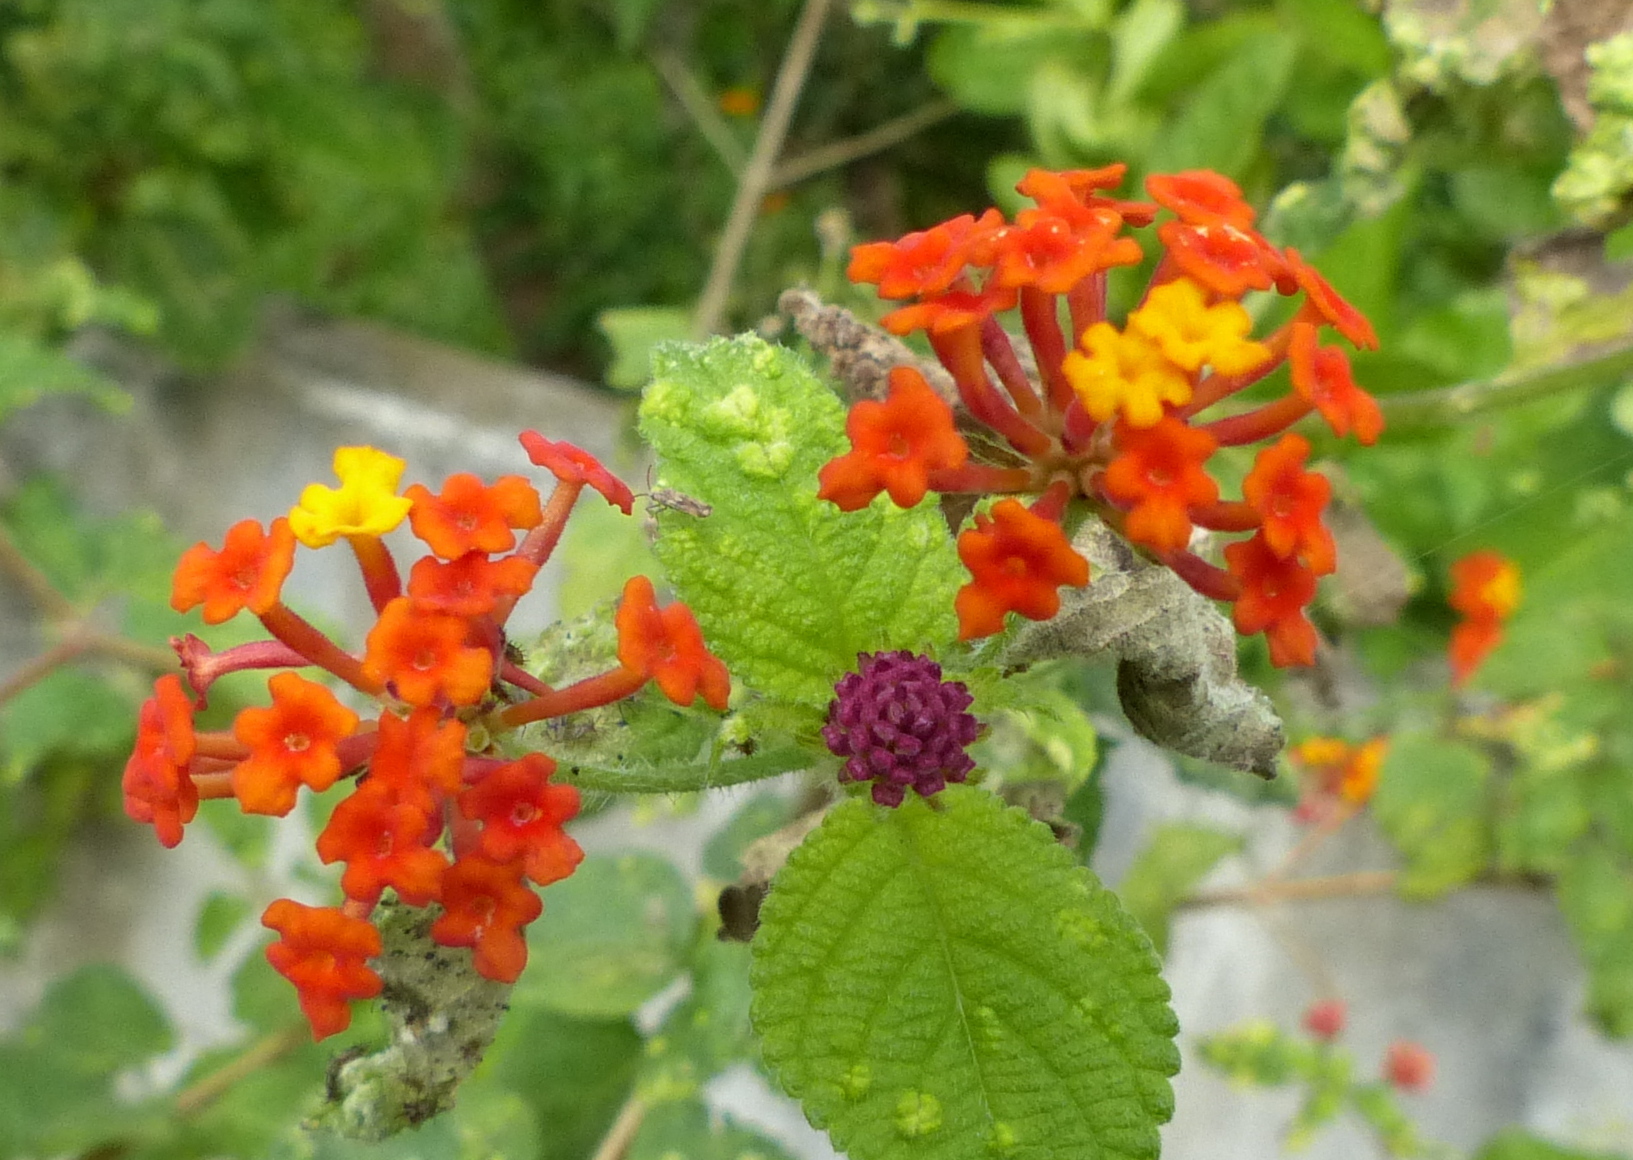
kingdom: Plantae
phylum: Tracheophyta
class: Magnoliopsida
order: Lamiales
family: Verbenaceae
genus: Lantana
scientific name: Lantana camara
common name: Lantana
